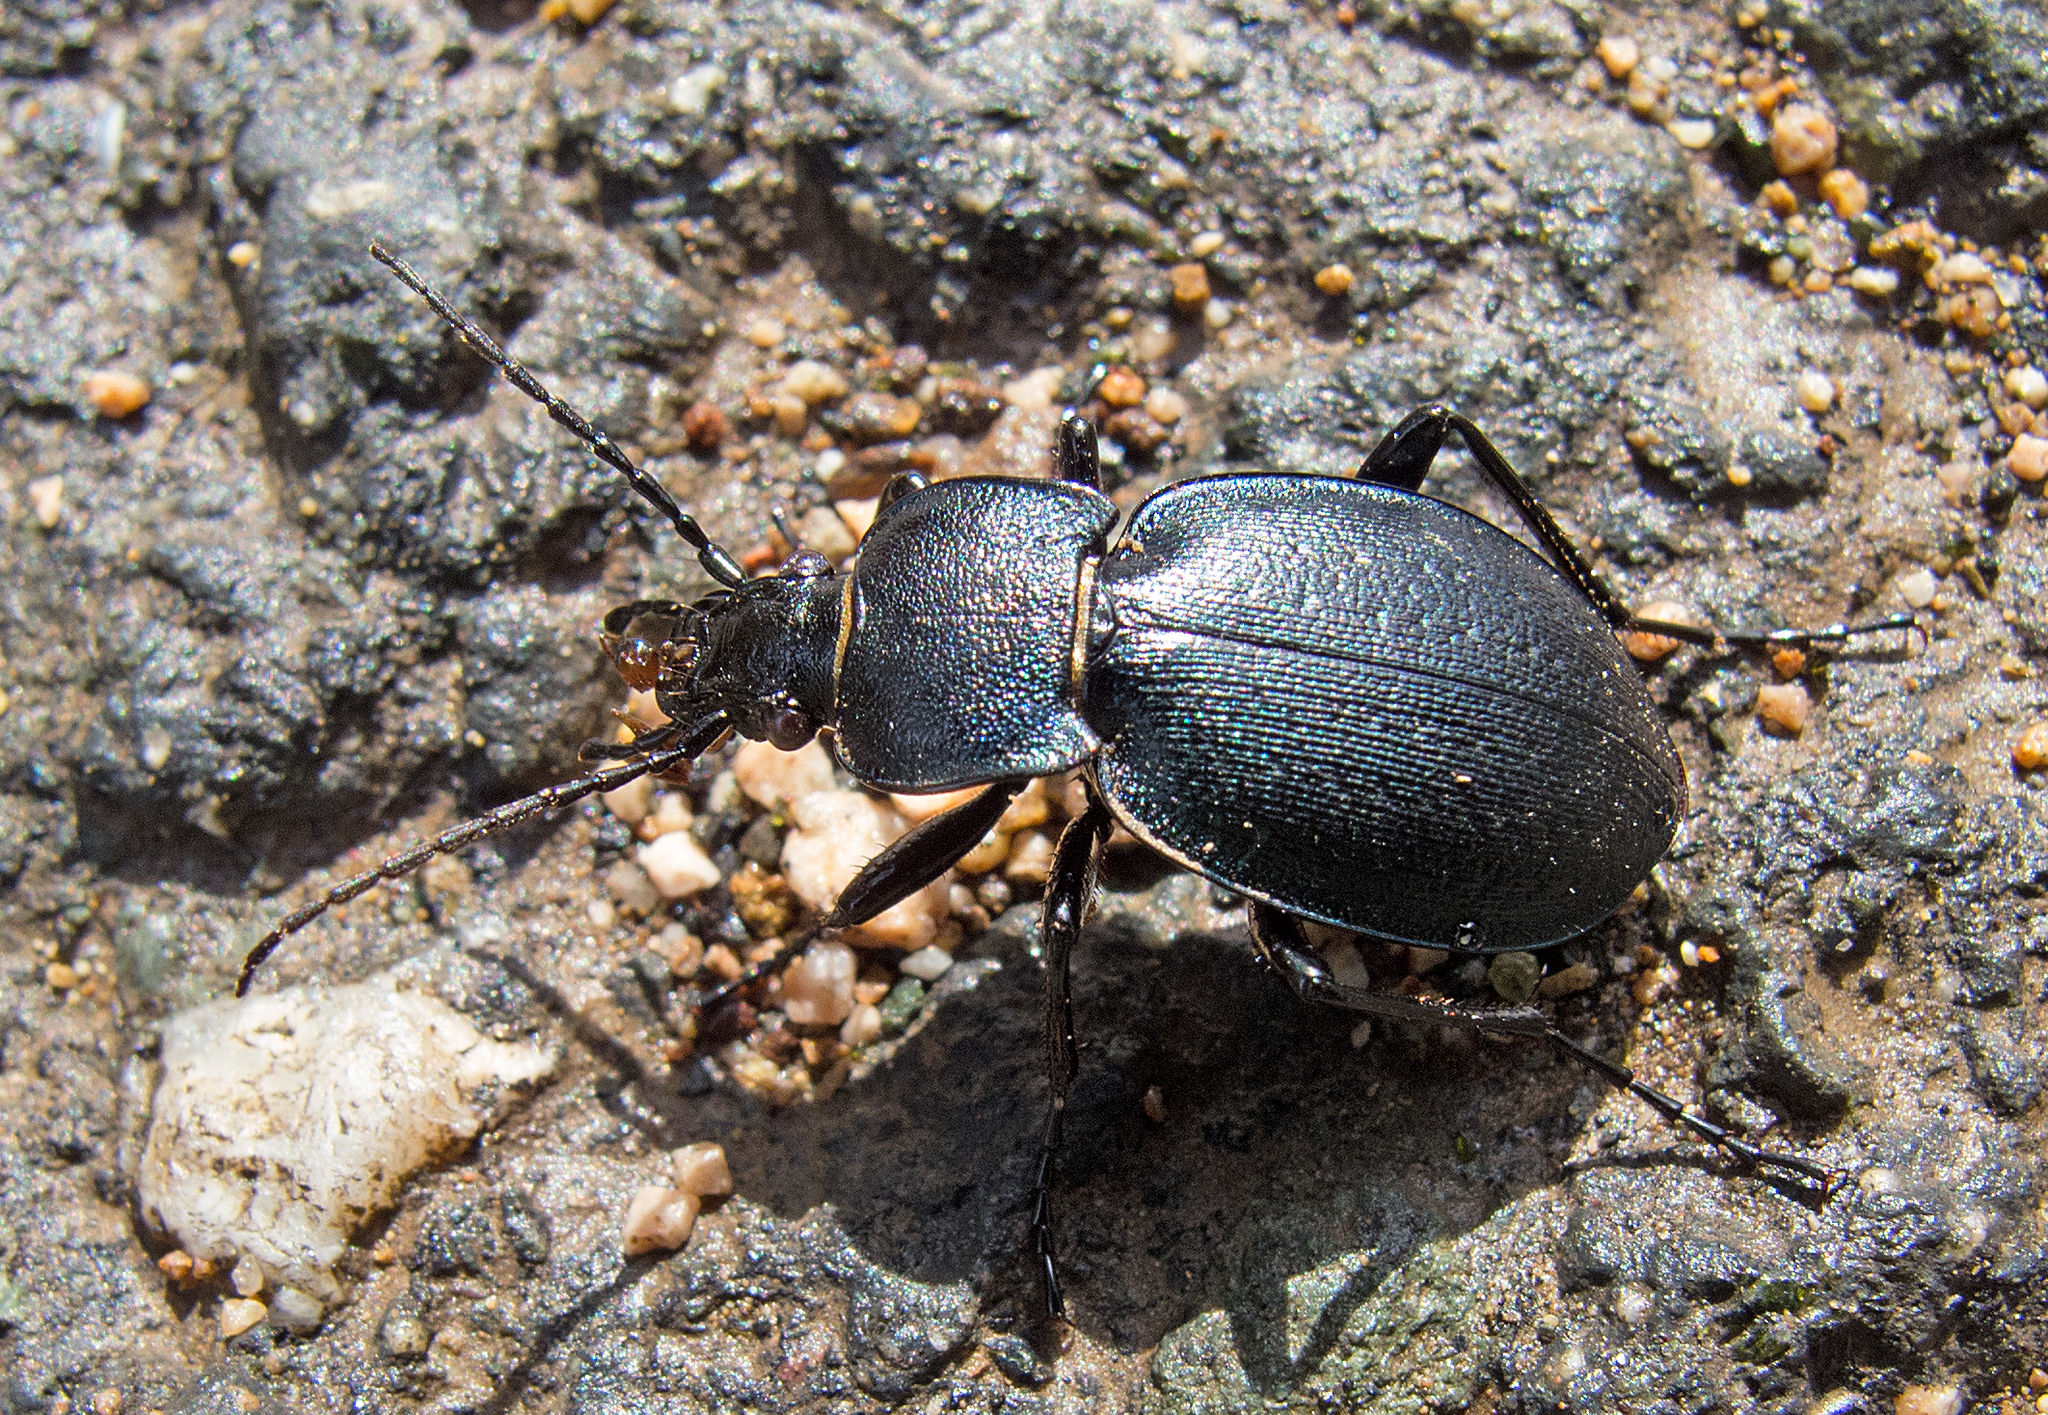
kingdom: Animalia
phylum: Arthropoda
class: Insecta
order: Coleoptera
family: Carabidae
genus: Carabus
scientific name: Carabus wiedemanni
